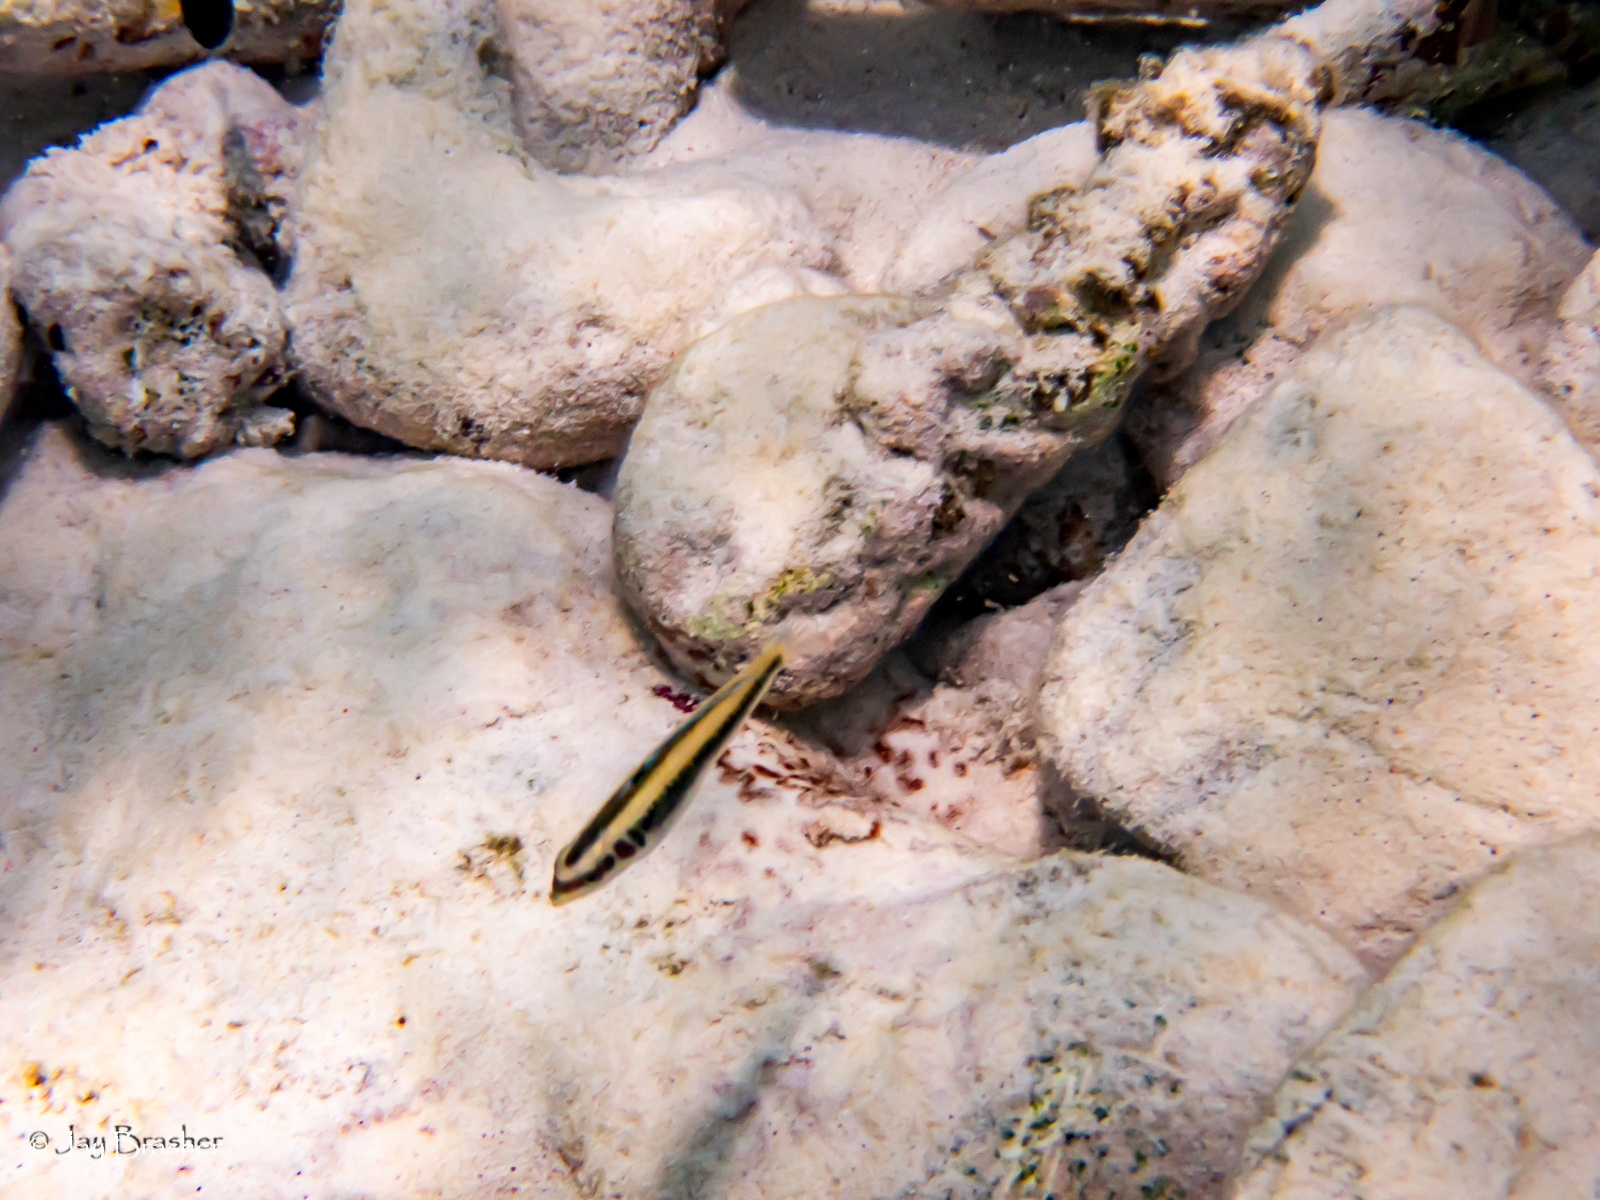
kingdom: Animalia
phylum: Chordata
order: Perciformes
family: Labridae
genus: Thalassoma
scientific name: Thalassoma bifasciatum
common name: Bluehead wrasse
